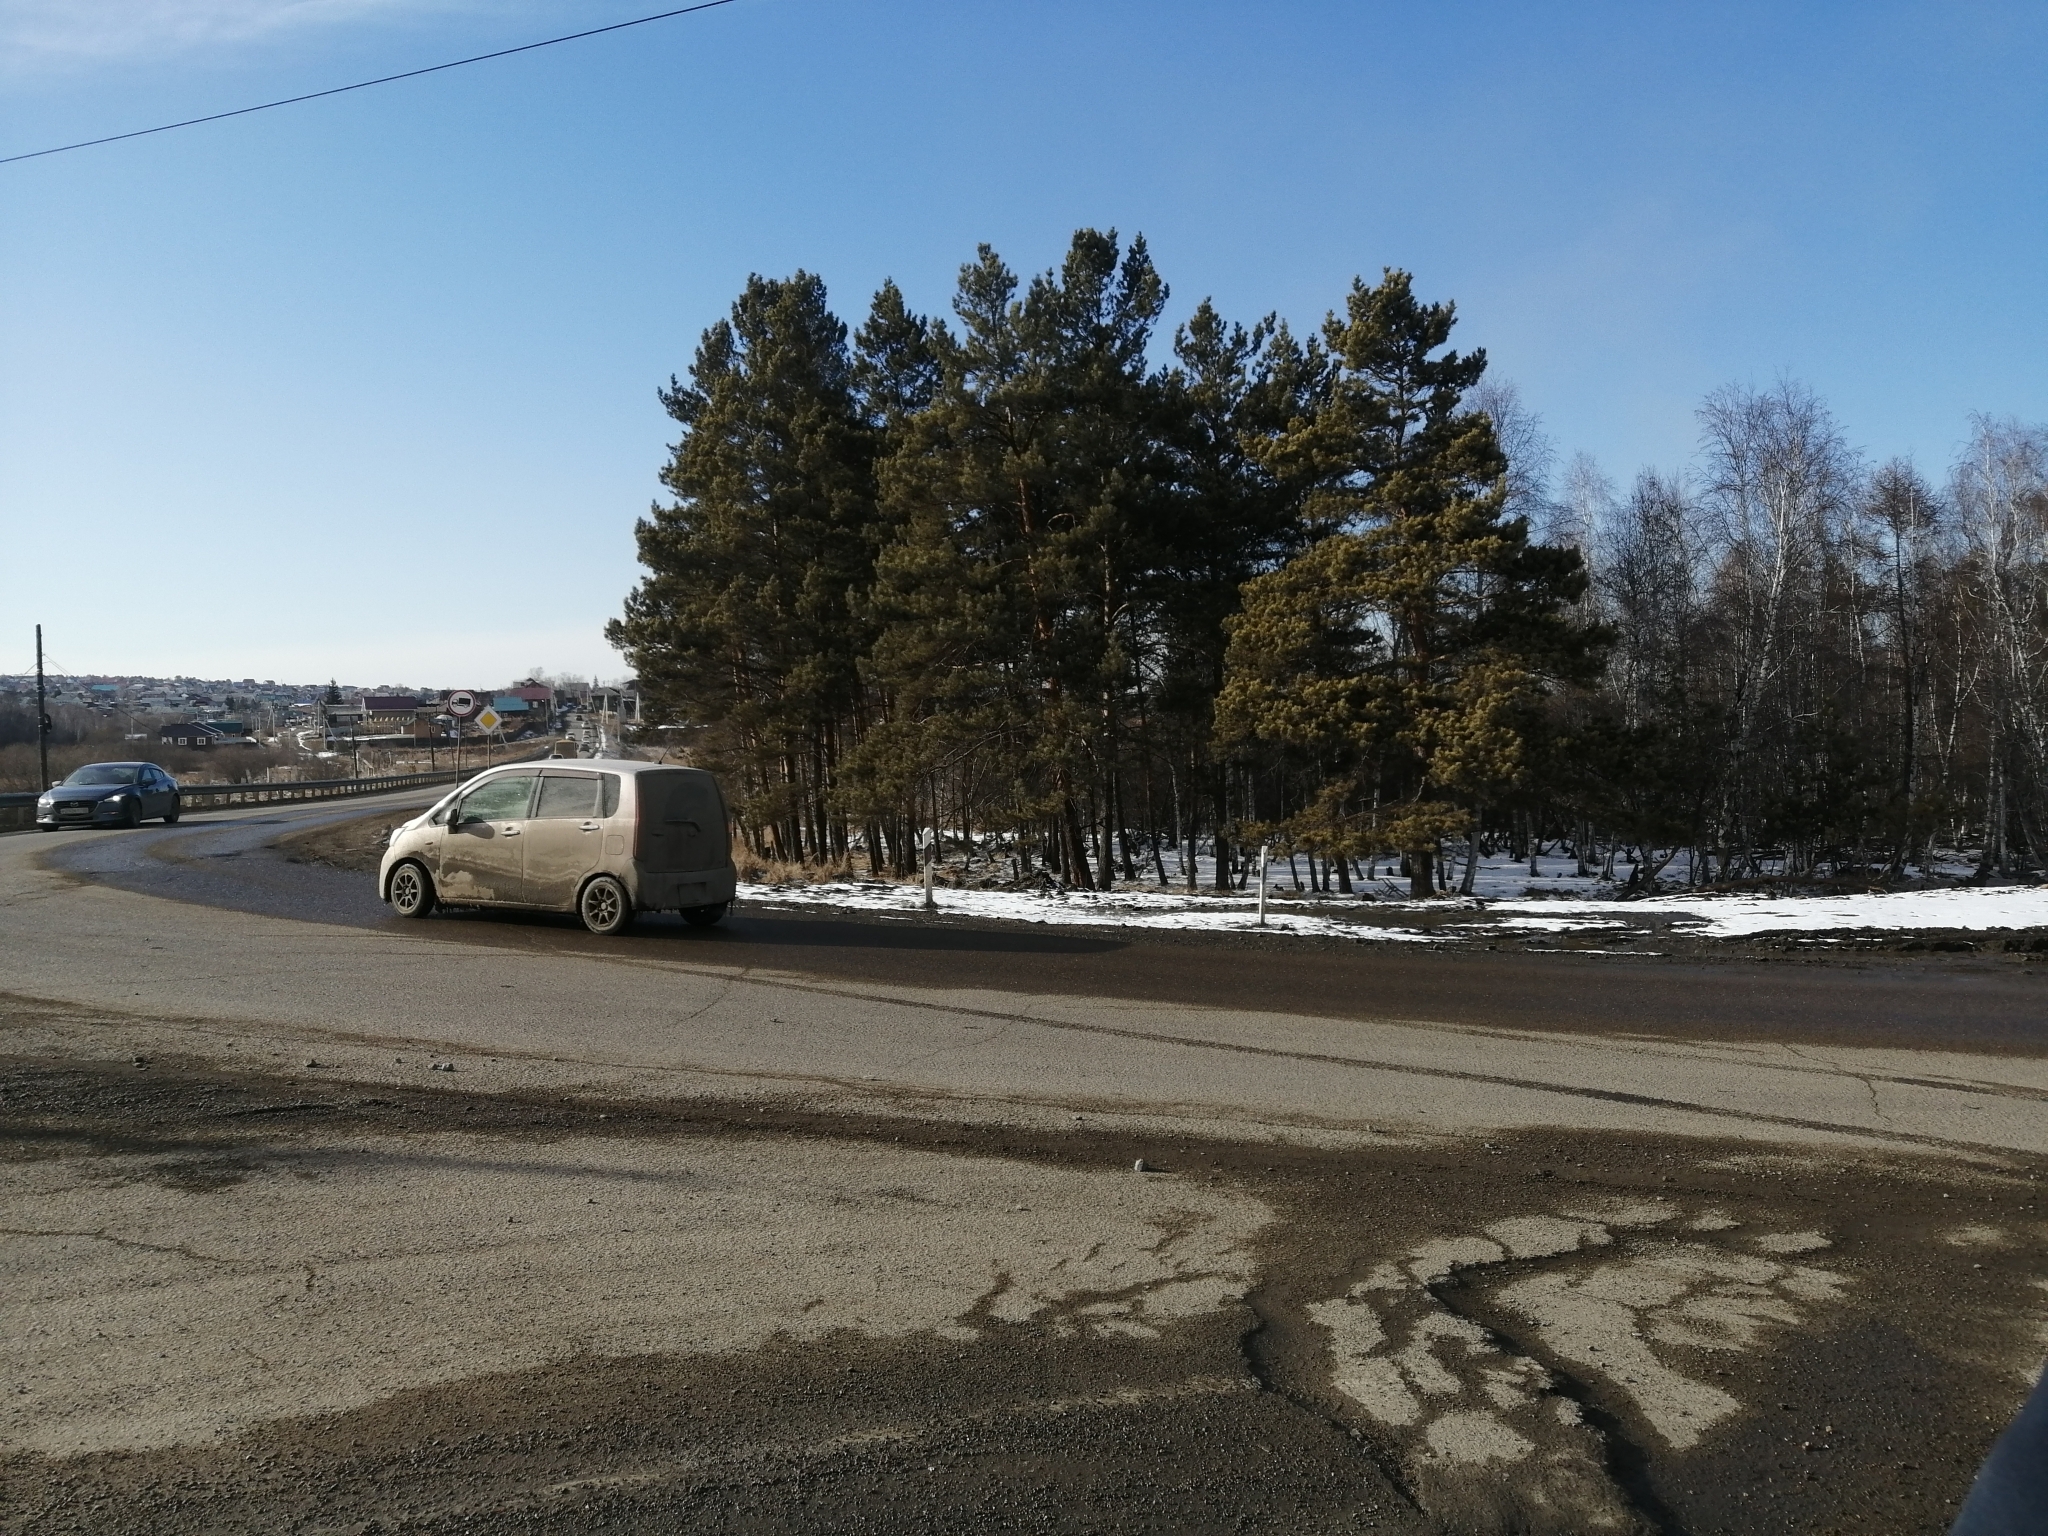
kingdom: Plantae
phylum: Tracheophyta
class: Pinopsida
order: Pinales
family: Pinaceae
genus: Pinus
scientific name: Pinus sylvestris
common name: Scots pine
